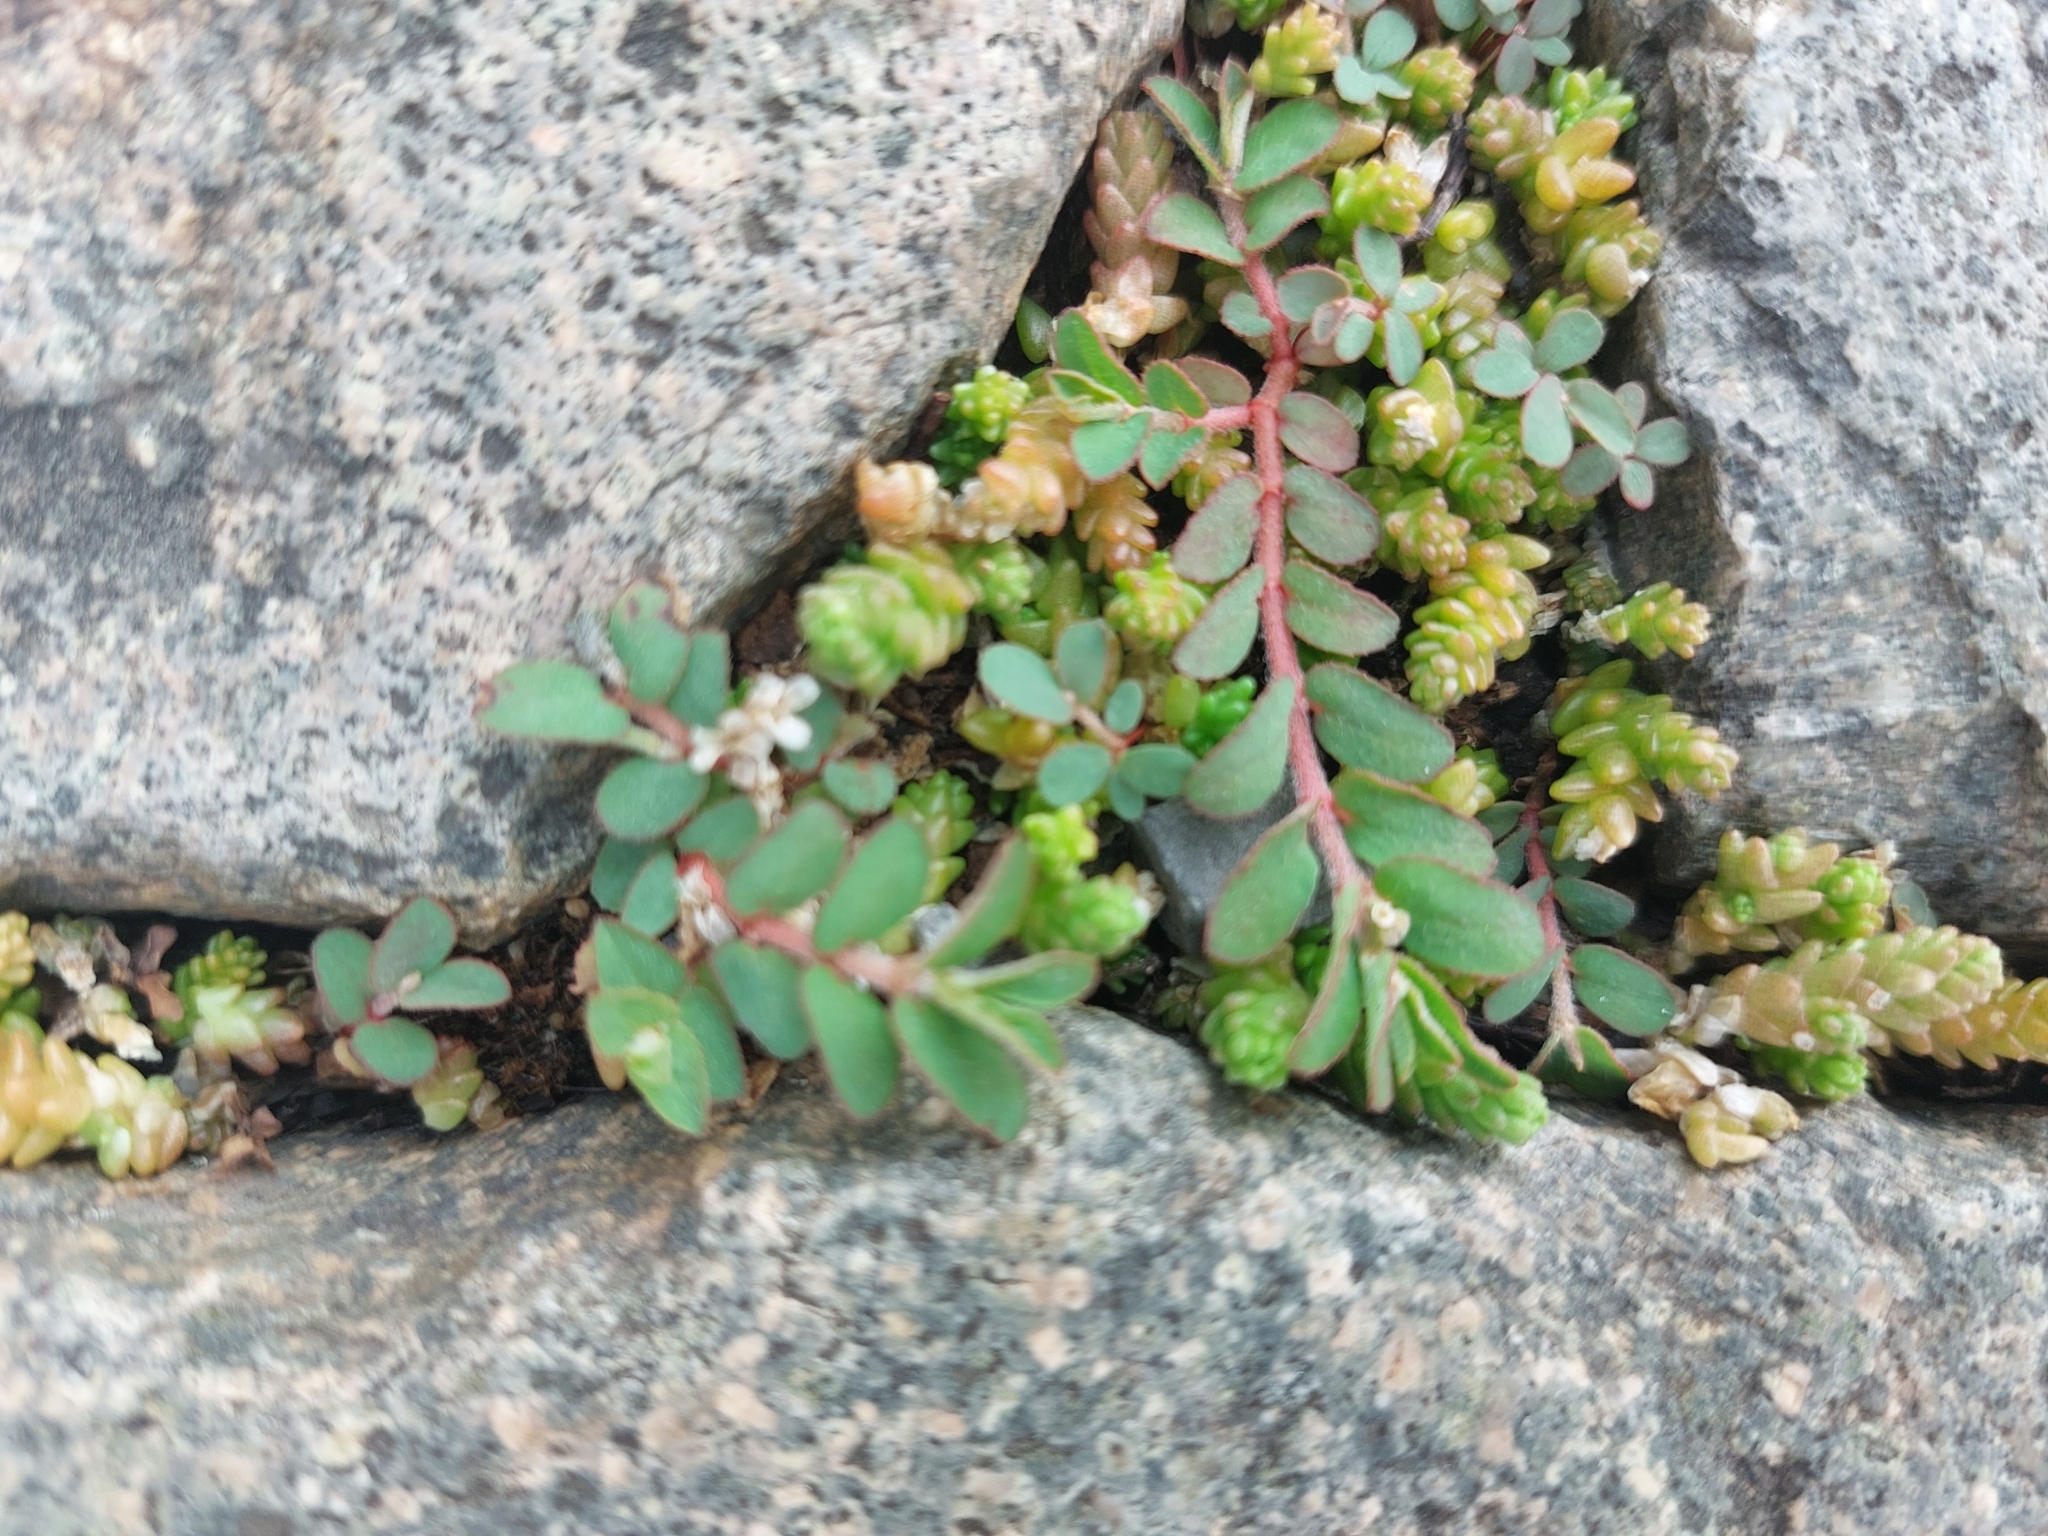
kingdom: Plantae
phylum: Tracheophyta
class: Magnoliopsida
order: Malpighiales
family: Euphorbiaceae
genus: Euphorbia
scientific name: Euphorbia maculata
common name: Spotted spurge
